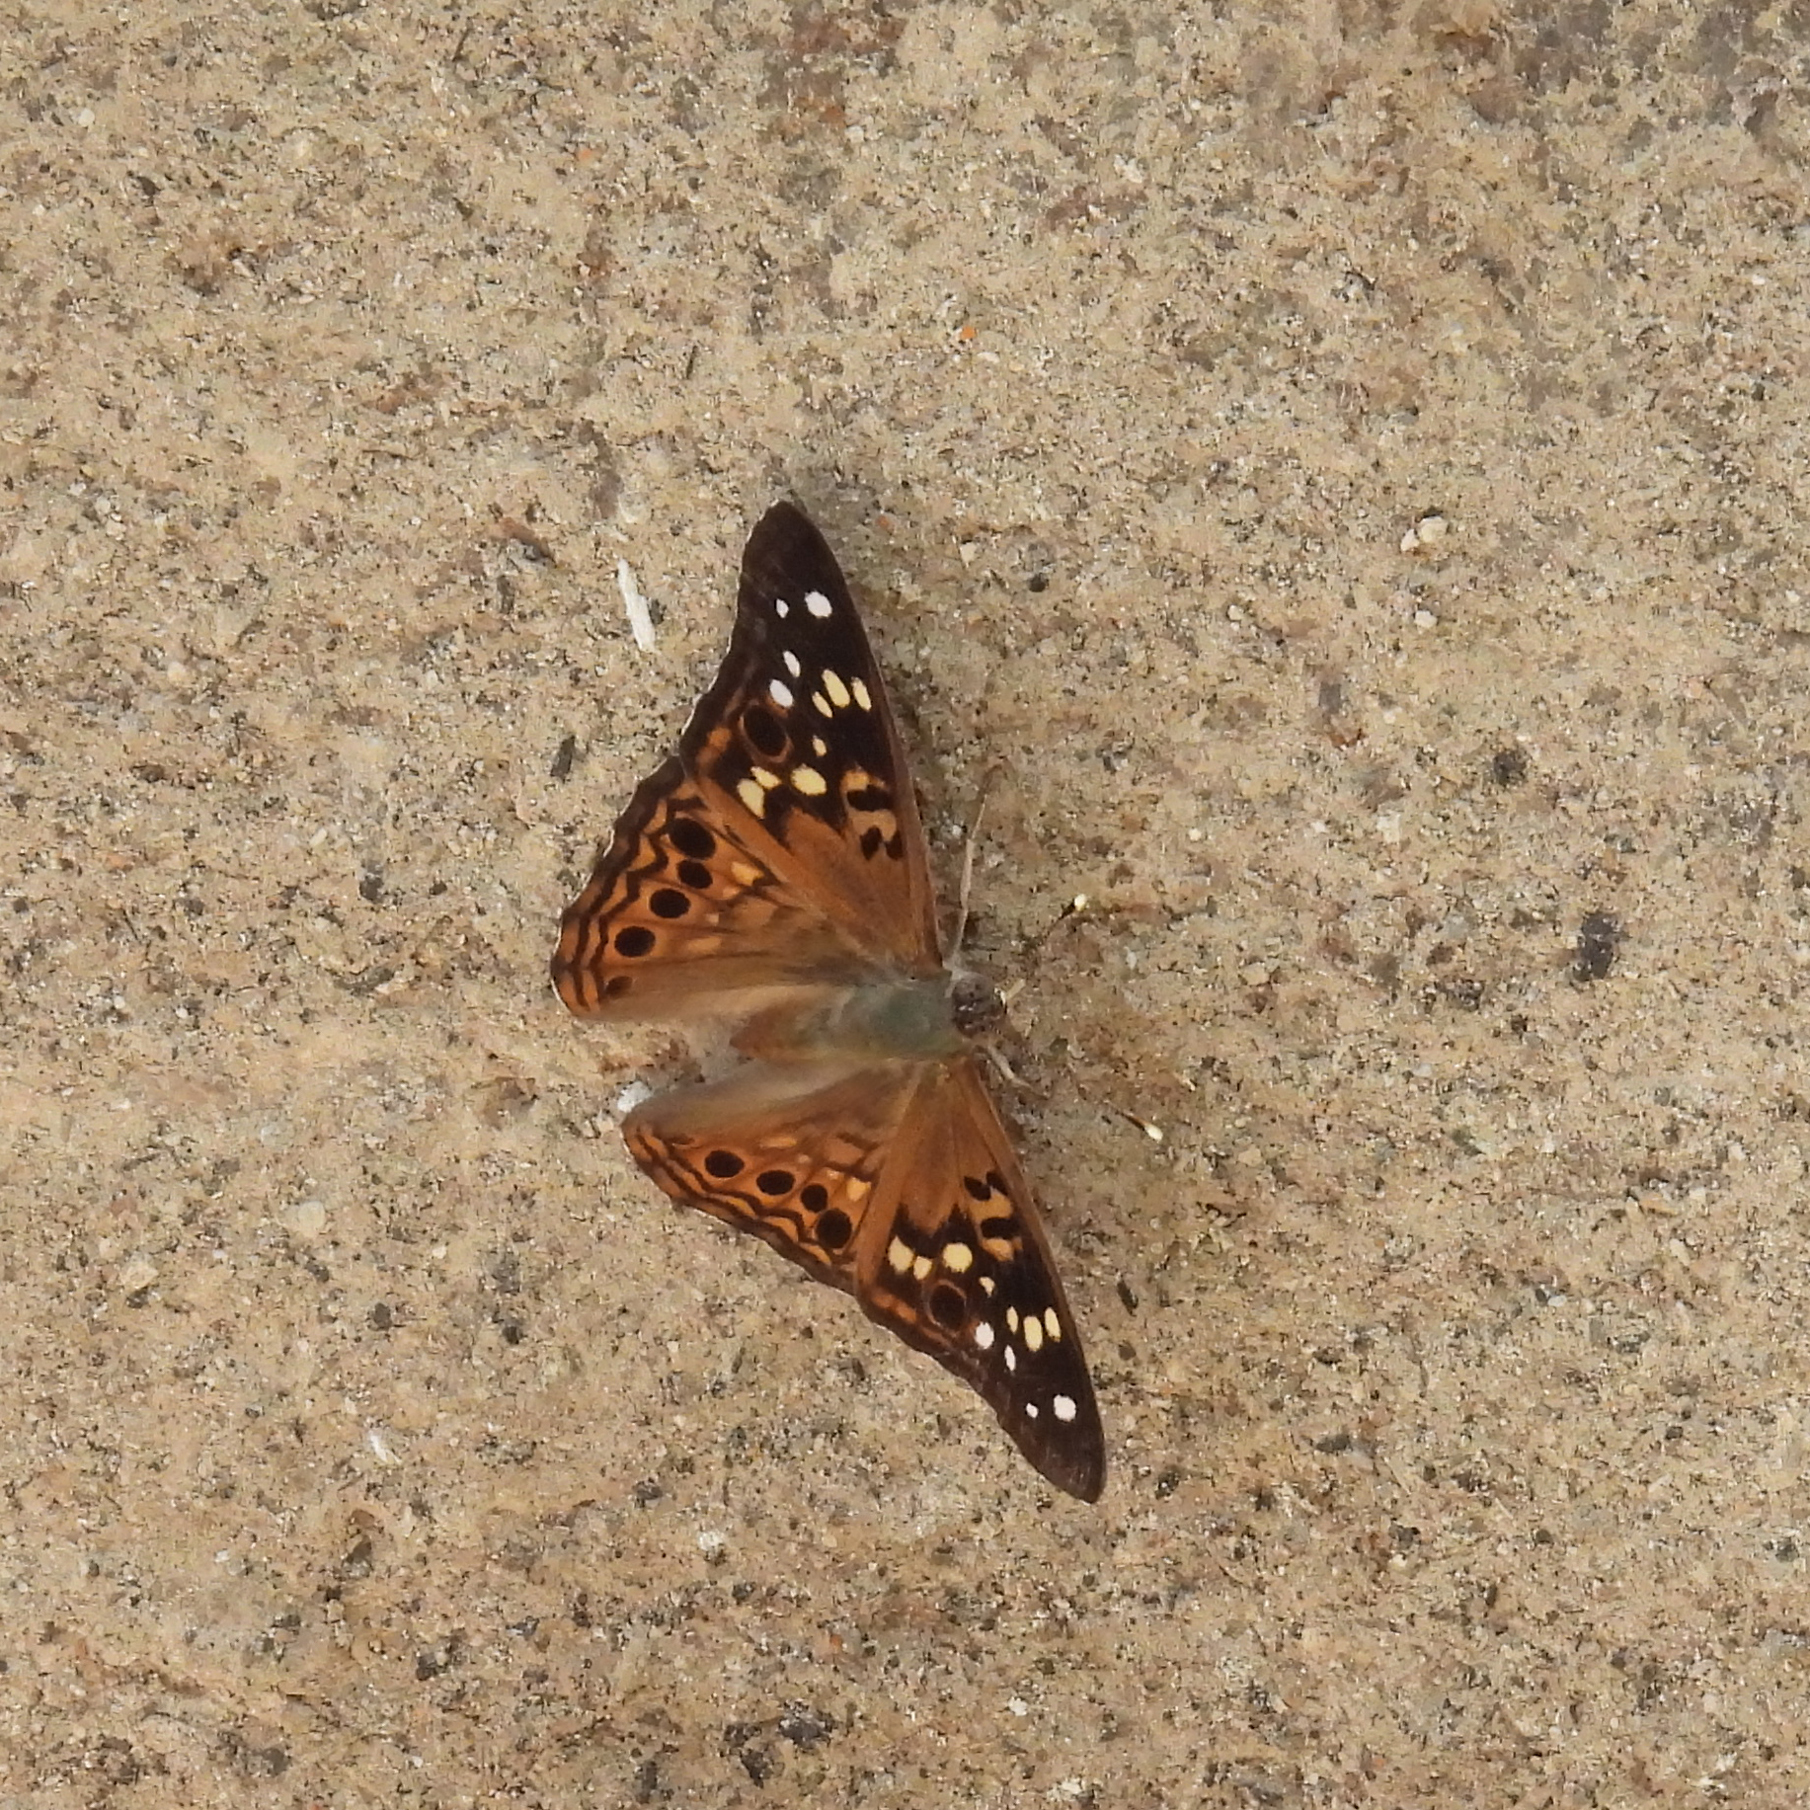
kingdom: Animalia
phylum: Arthropoda
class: Insecta
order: Lepidoptera
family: Nymphalidae
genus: Asterocampa
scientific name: Asterocampa celtis
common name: Hackberry emperor
